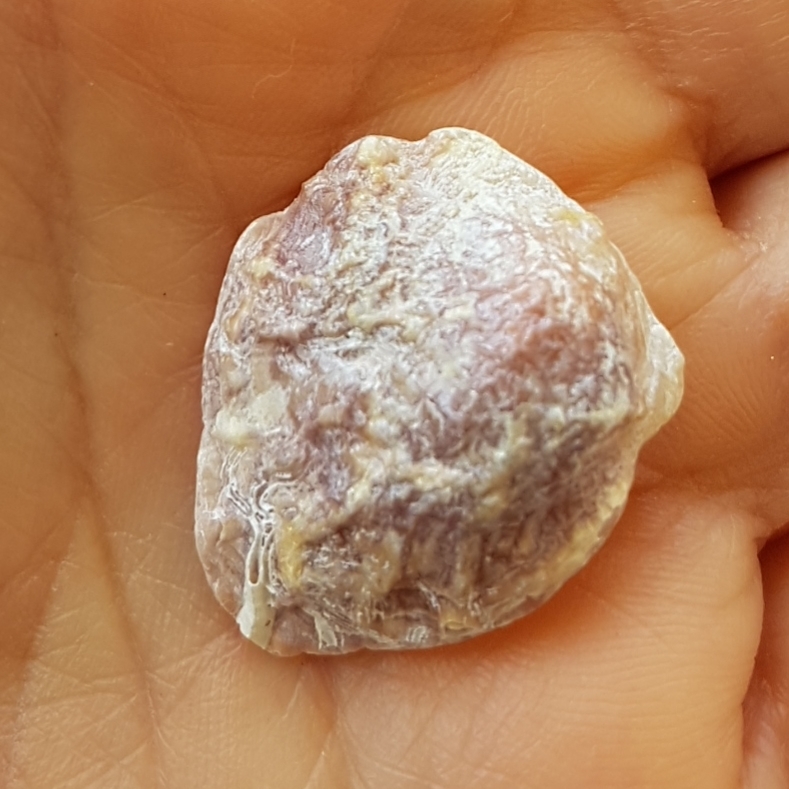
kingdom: Animalia
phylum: Mollusca
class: Bivalvia
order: Pectinida
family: Anomiidae
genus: Anomia
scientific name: Anomia ephippium
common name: Saddle oyster
